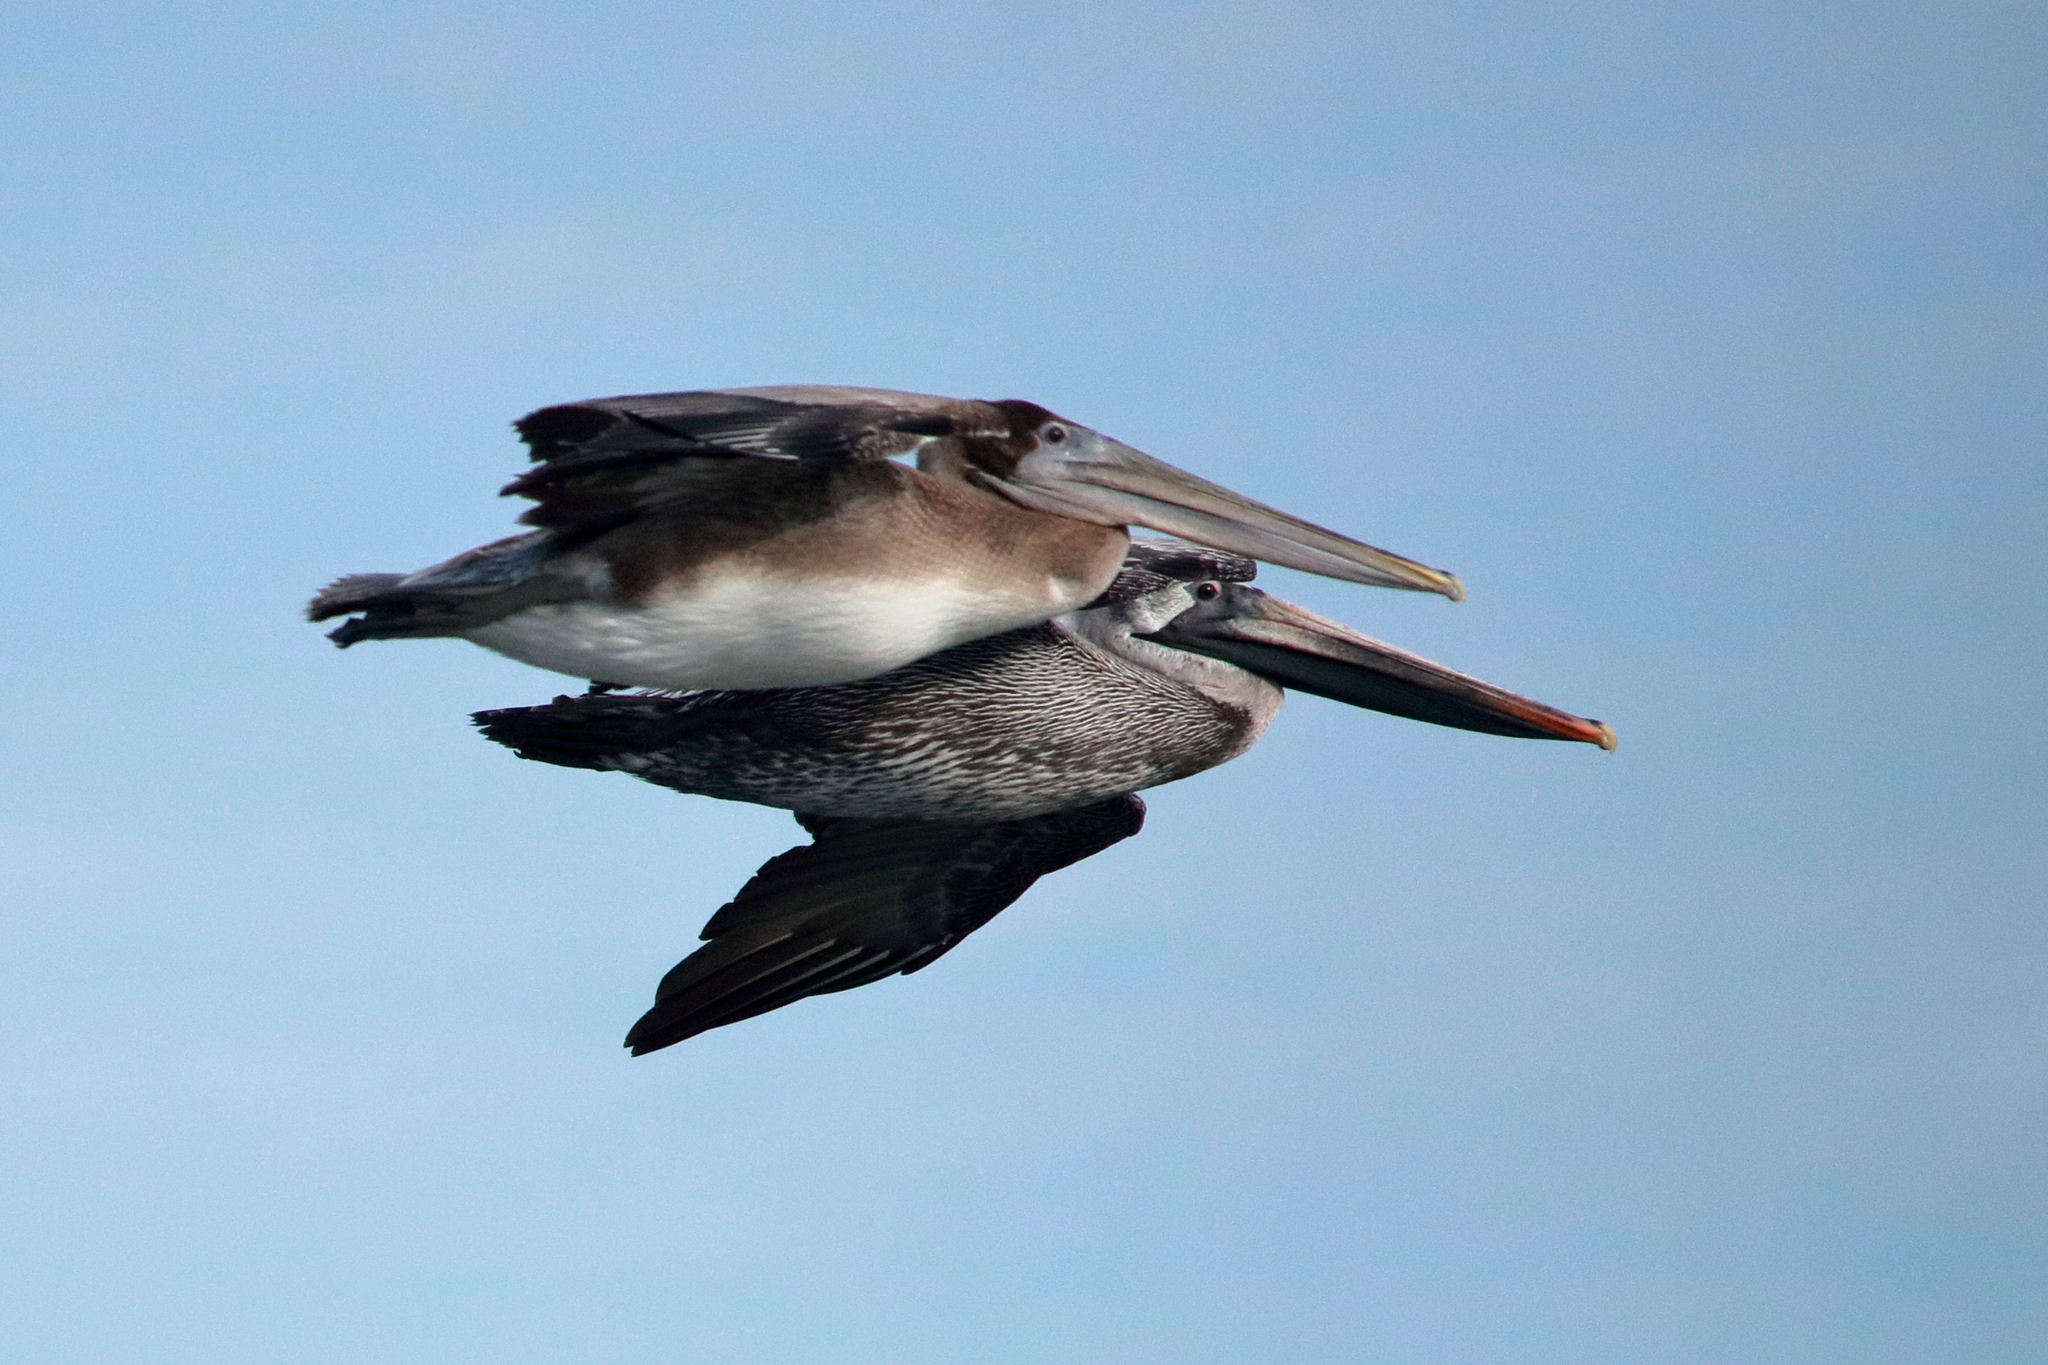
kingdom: Animalia
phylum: Chordata
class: Aves
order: Pelecaniformes
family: Pelecanidae
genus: Pelecanus
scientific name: Pelecanus occidentalis
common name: Brown pelican
